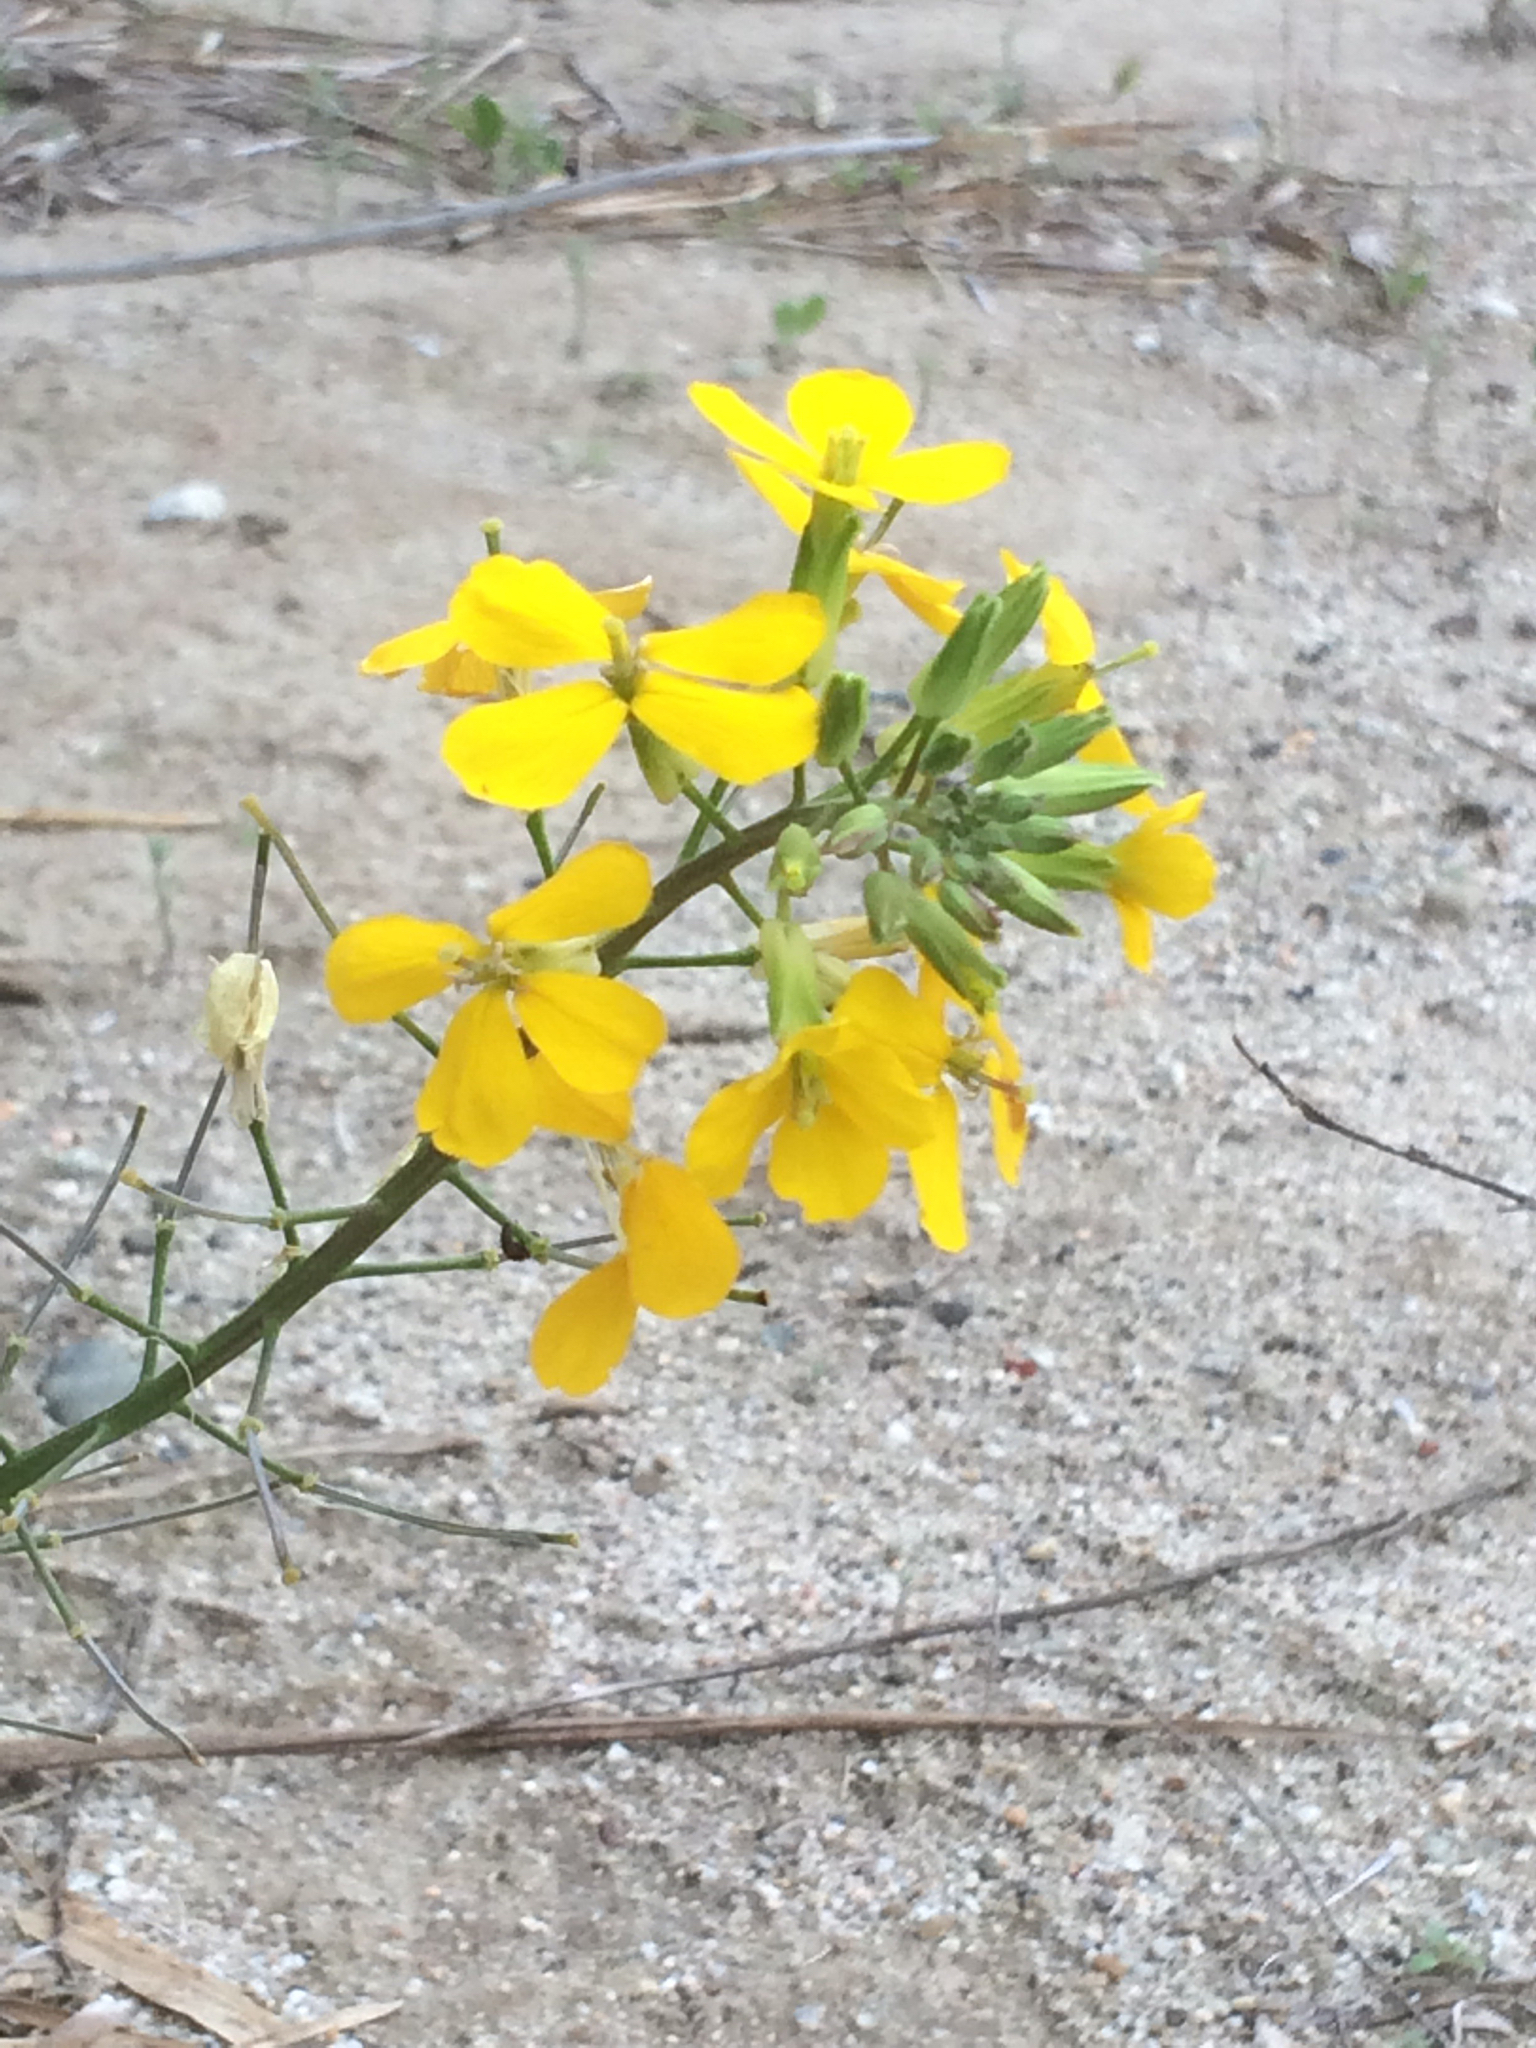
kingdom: Plantae
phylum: Tracheophyta
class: Magnoliopsida
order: Brassicales
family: Brassicaceae
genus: Erysimum
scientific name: Erysimum capitatum
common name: Western wallflower
